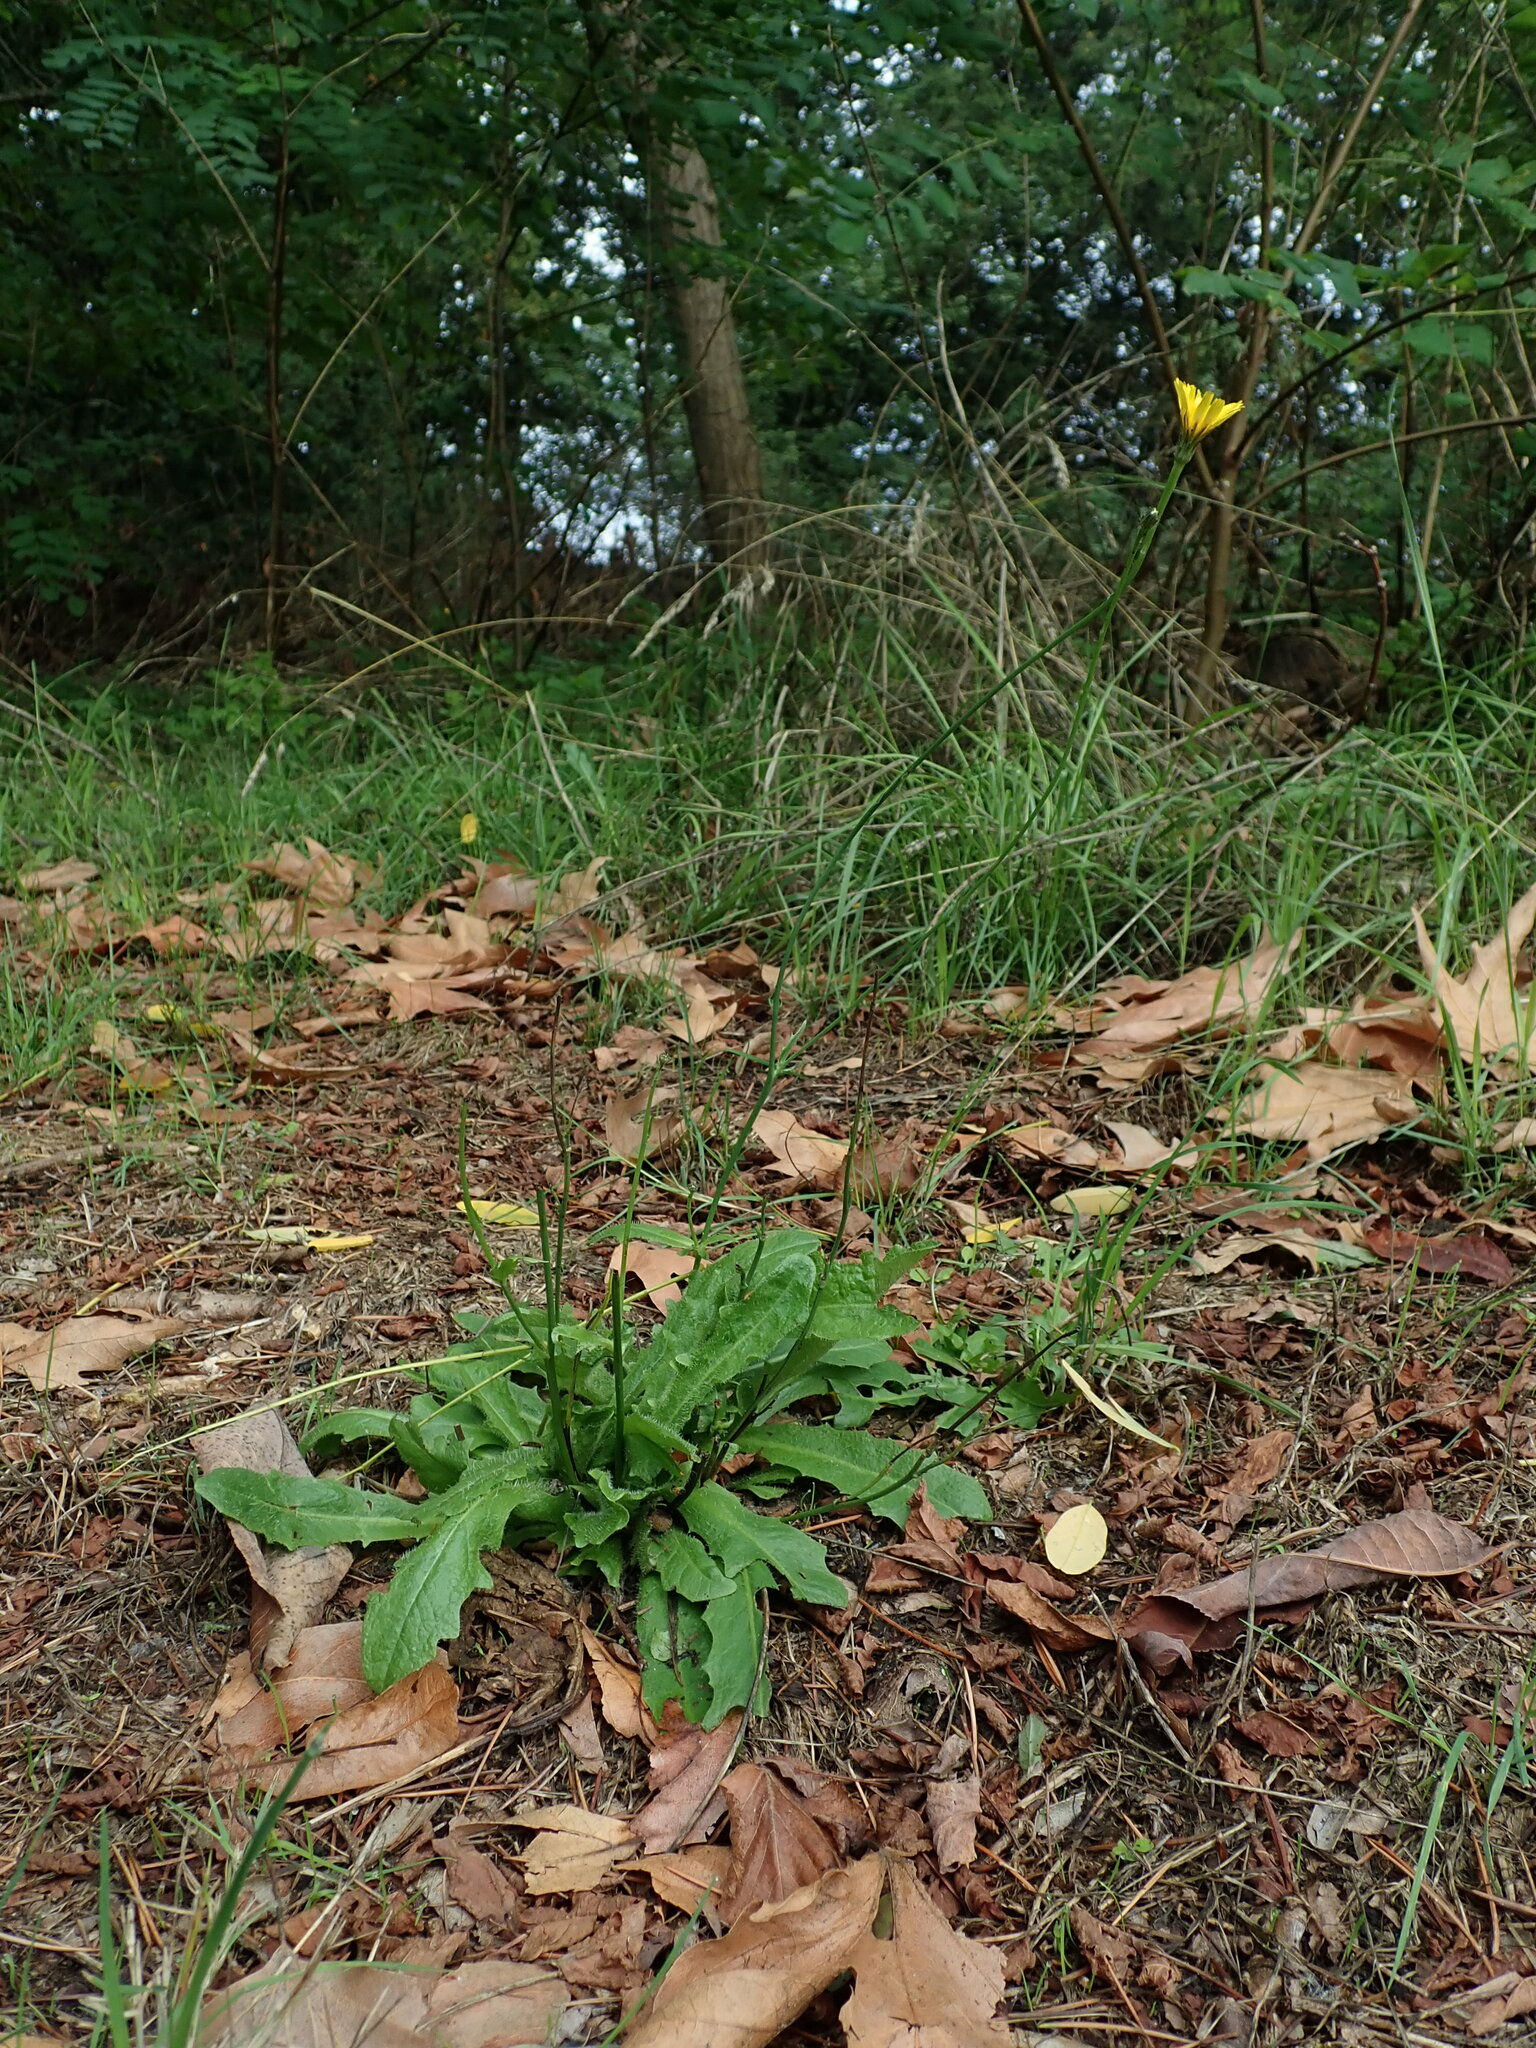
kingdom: Plantae
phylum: Tracheophyta
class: Magnoliopsida
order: Asterales
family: Asteraceae
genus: Hypochaeris
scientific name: Hypochaeris radicata
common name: Flatweed
